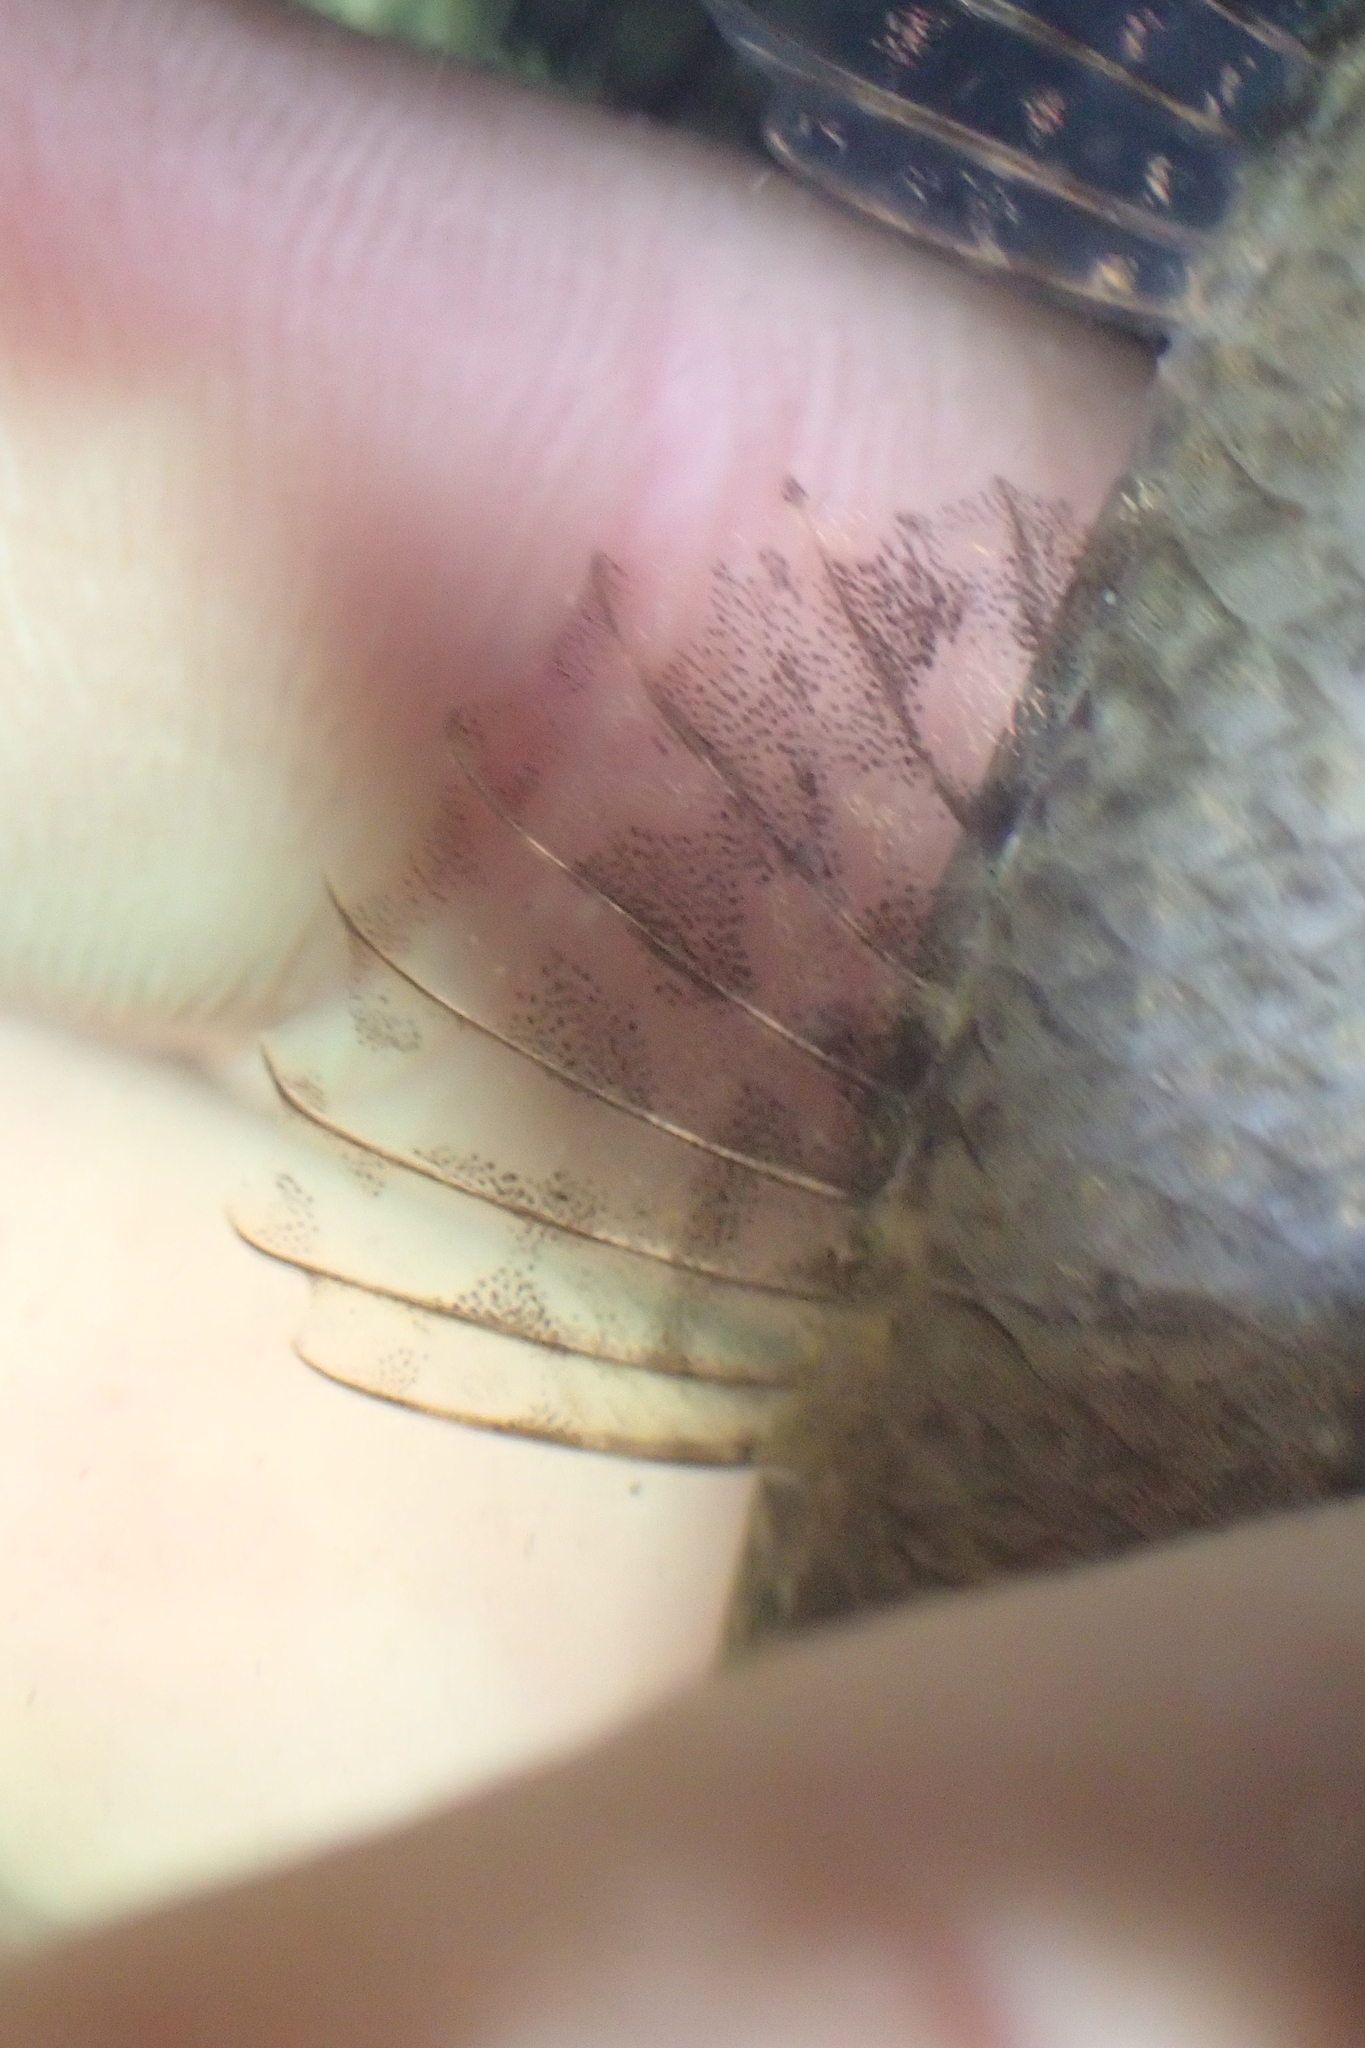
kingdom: Animalia
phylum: Chordata
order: Perciformes
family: Eleotridae
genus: Gobiomorphus
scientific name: Gobiomorphus cotidianus
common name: Common bully
